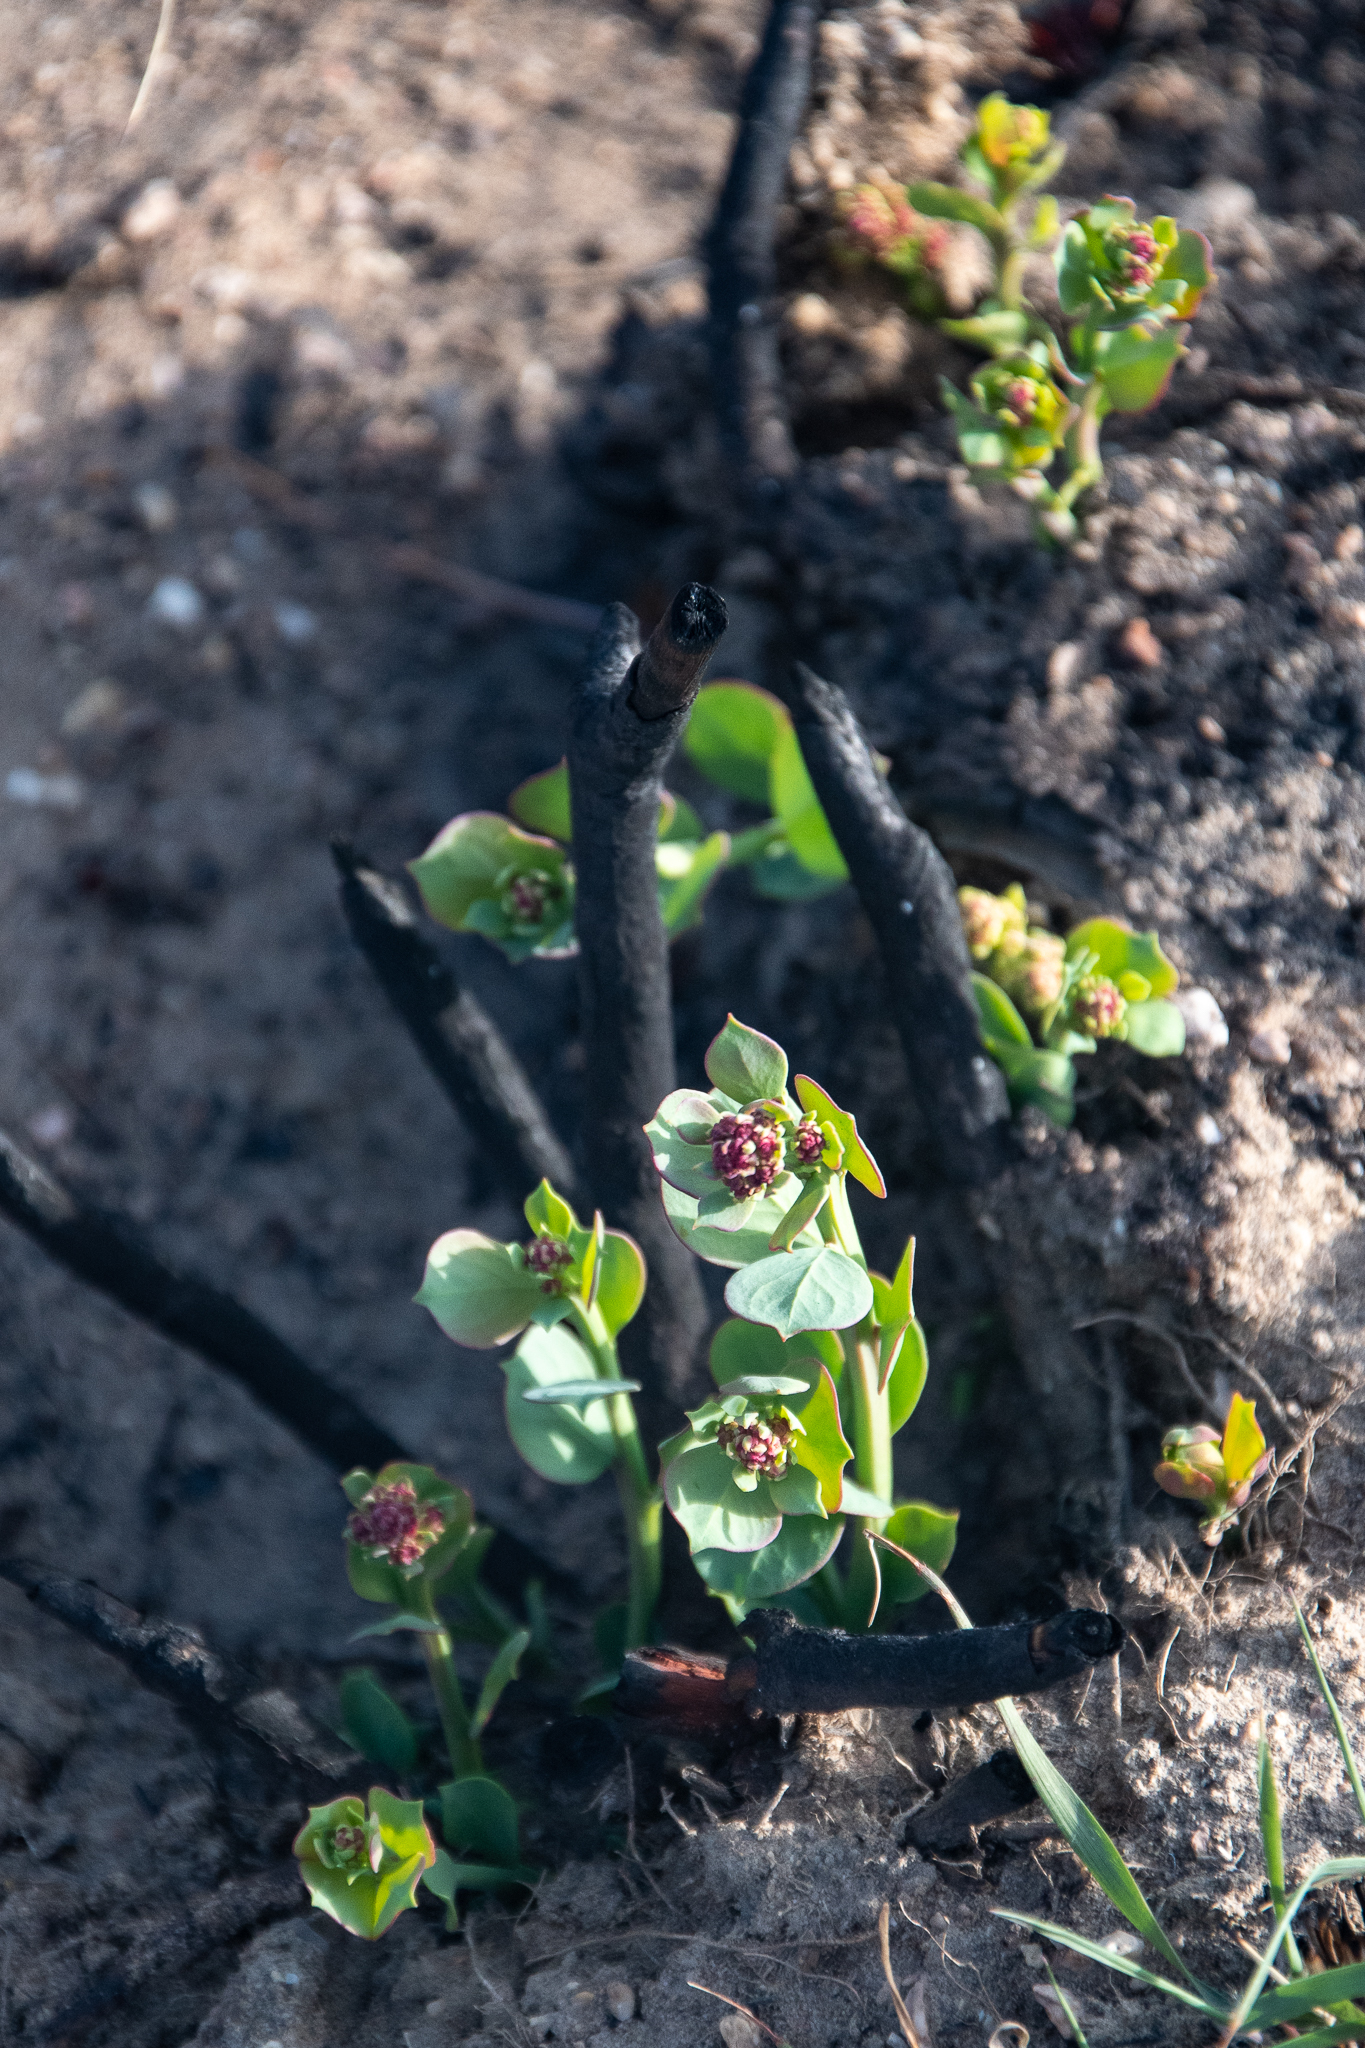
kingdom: Plantae
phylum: Tracheophyta
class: Magnoliopsida
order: Santalales
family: Santalaceae
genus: Osyris
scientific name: Osyris compressa
